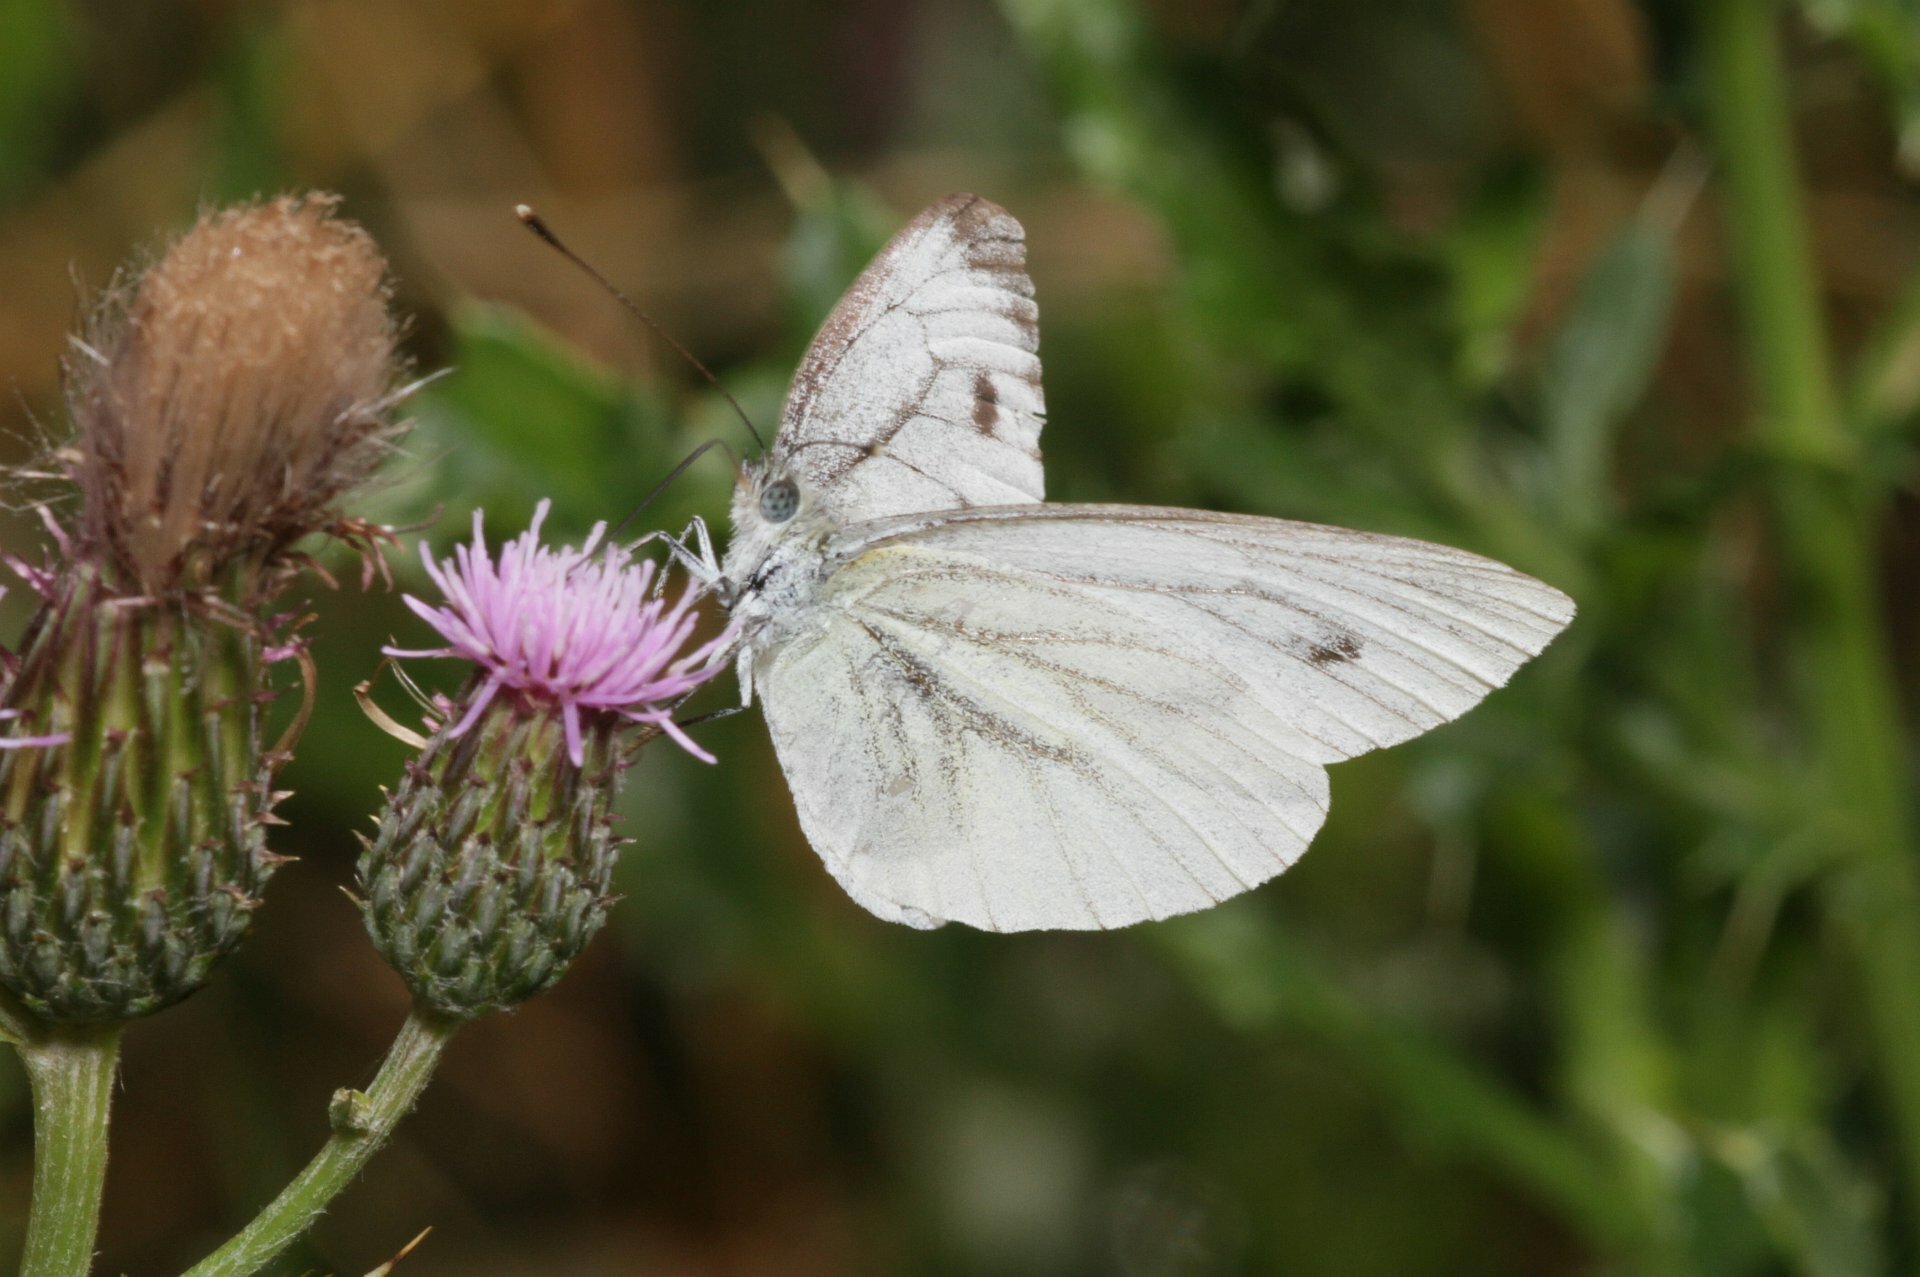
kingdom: Animalia
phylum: Arthropoda
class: Insecta
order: Lepidoptera
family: Pieridae
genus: Pieris
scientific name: Pieris napi
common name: Green-veined white
